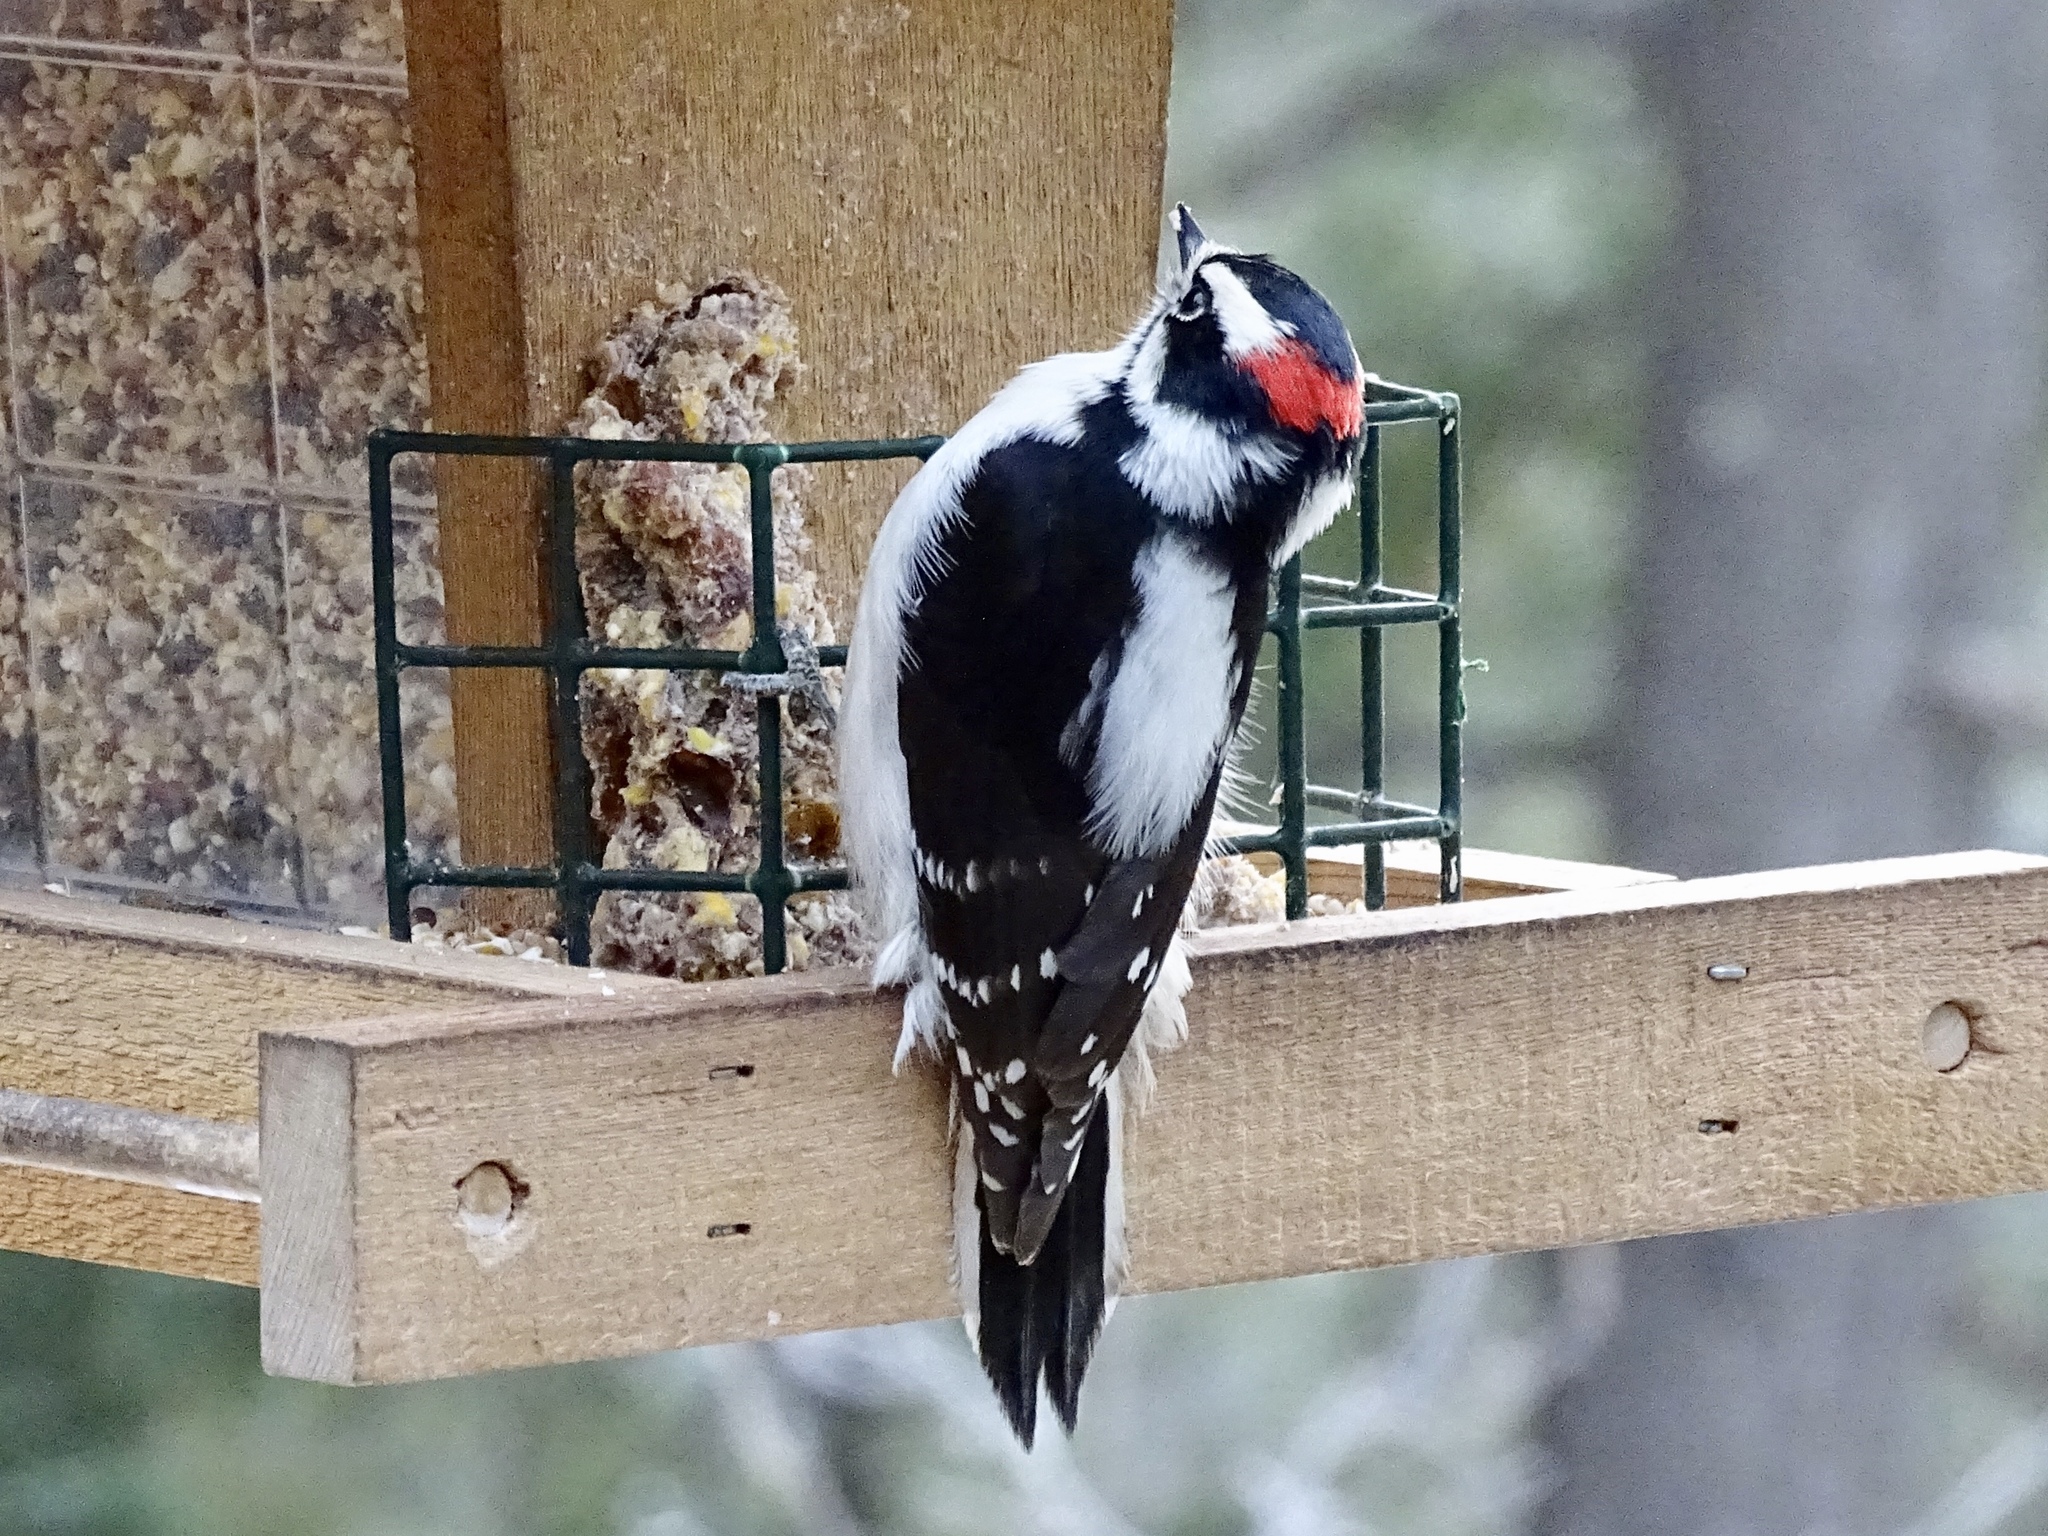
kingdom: Animalia
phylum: Chordata
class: Aves
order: Piciformes
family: Picidae
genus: Dryobates
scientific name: Dryobates pubescens
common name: Downy woodpecker
